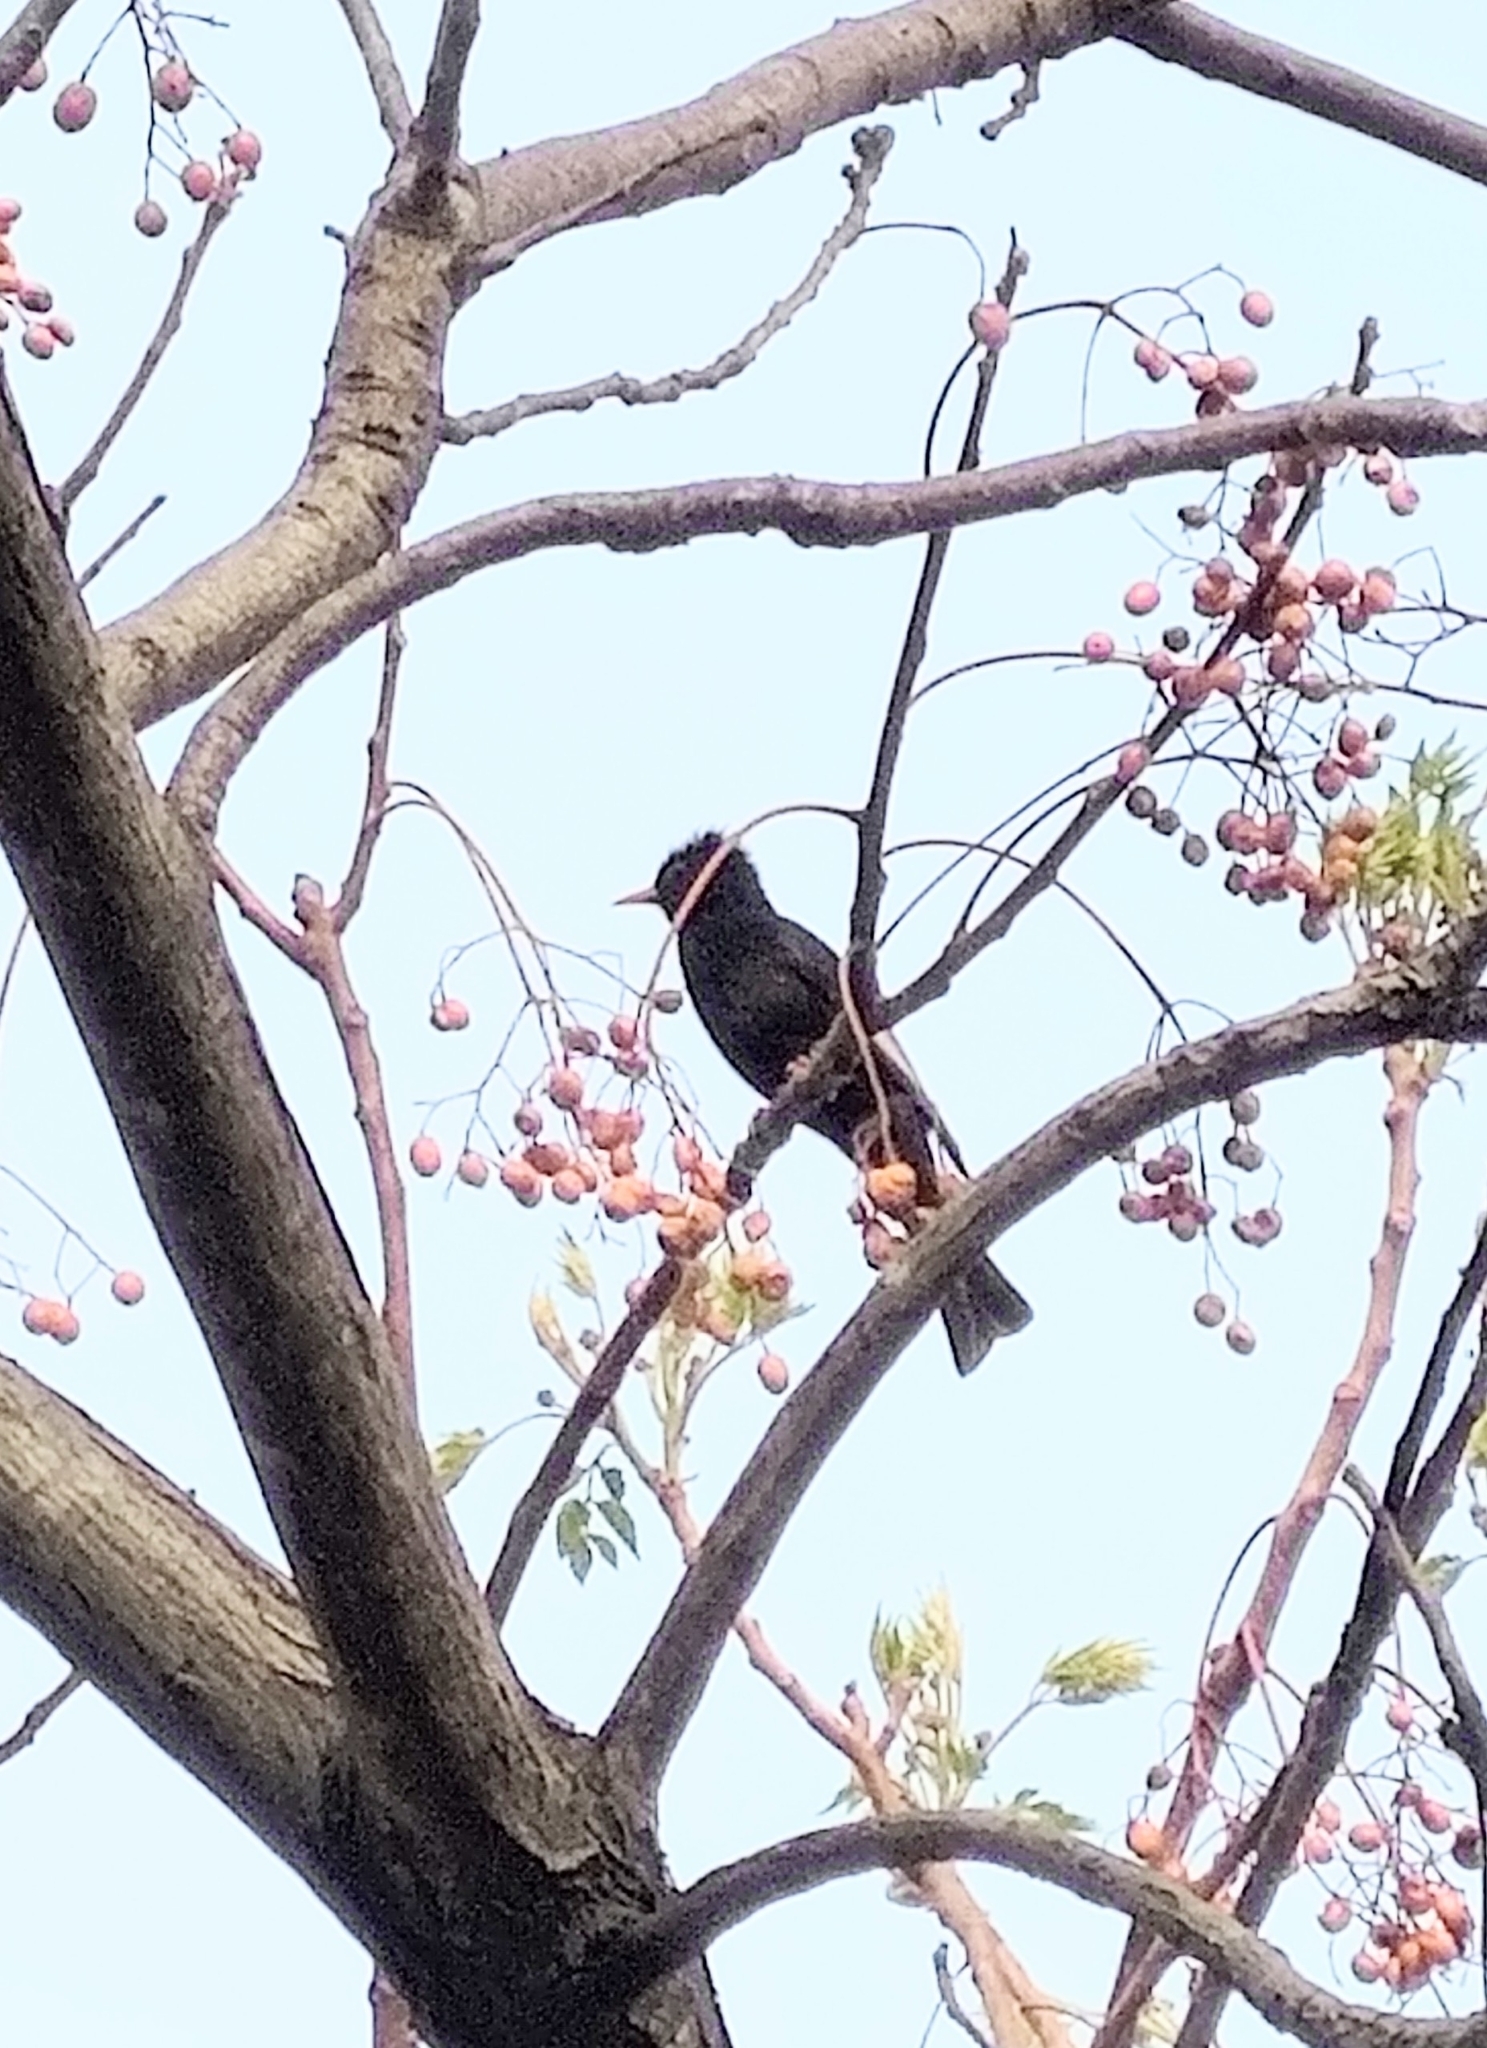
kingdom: Animalia
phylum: Chordata
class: Aves
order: Passeriformes
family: Pycnonotidae
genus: Hypsipetes
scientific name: Hypsipetes leucocephalus
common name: Black bulbul
